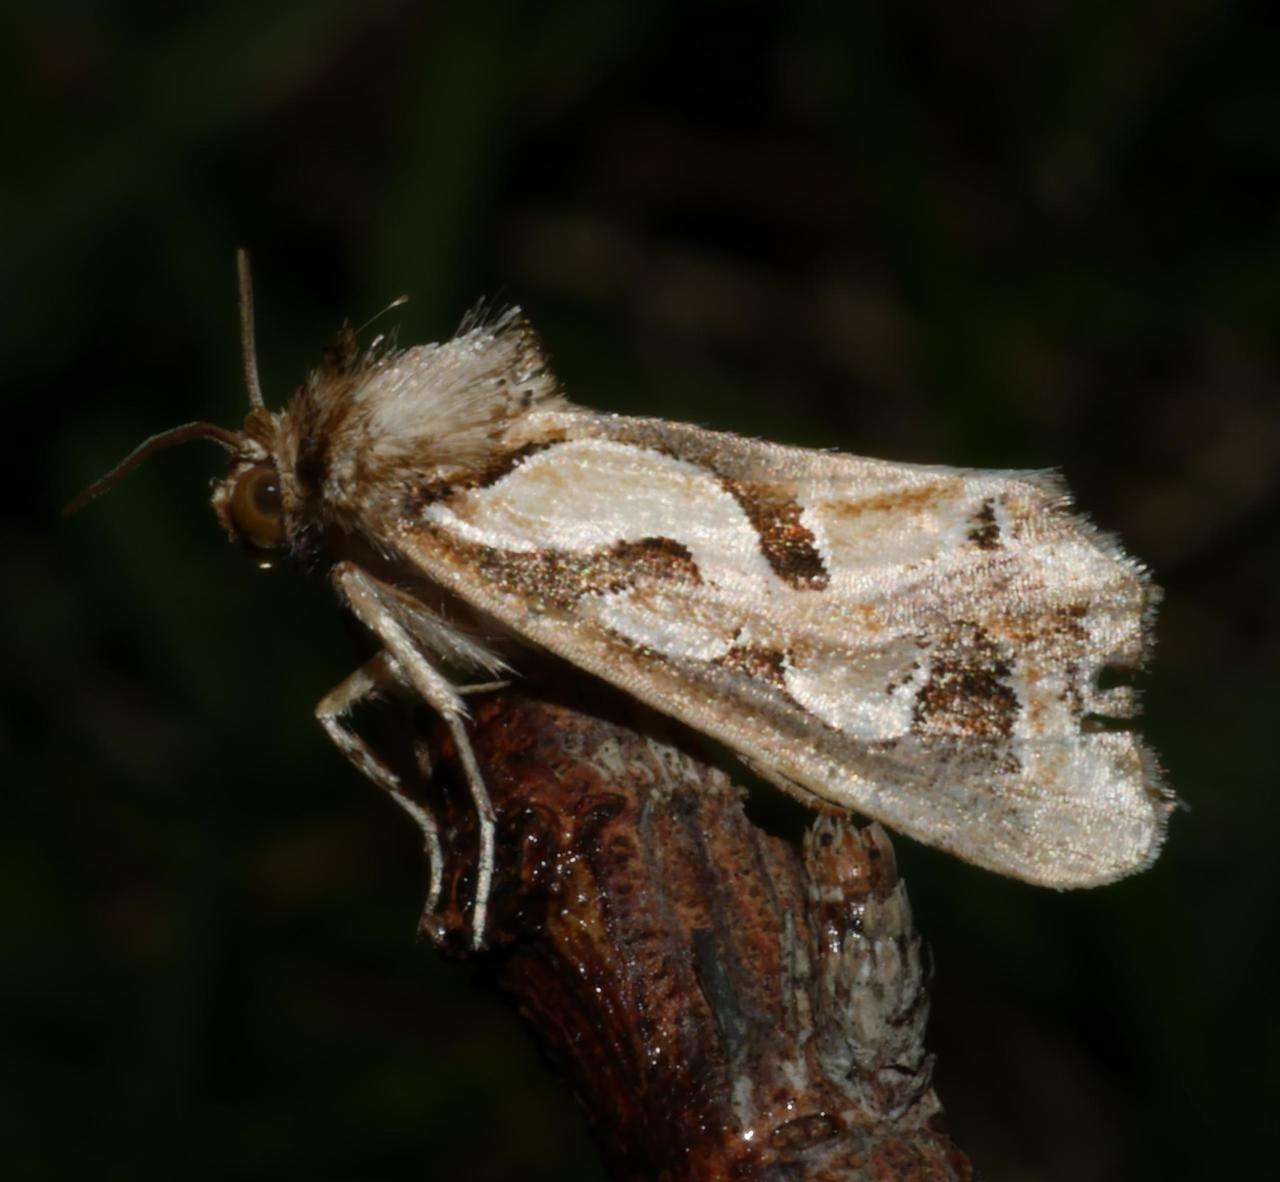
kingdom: Animalia
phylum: Arthropoda
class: Insecta
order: Lepidoptera
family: Noctuidae
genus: Cosmodes
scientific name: Cosmodes elegans
